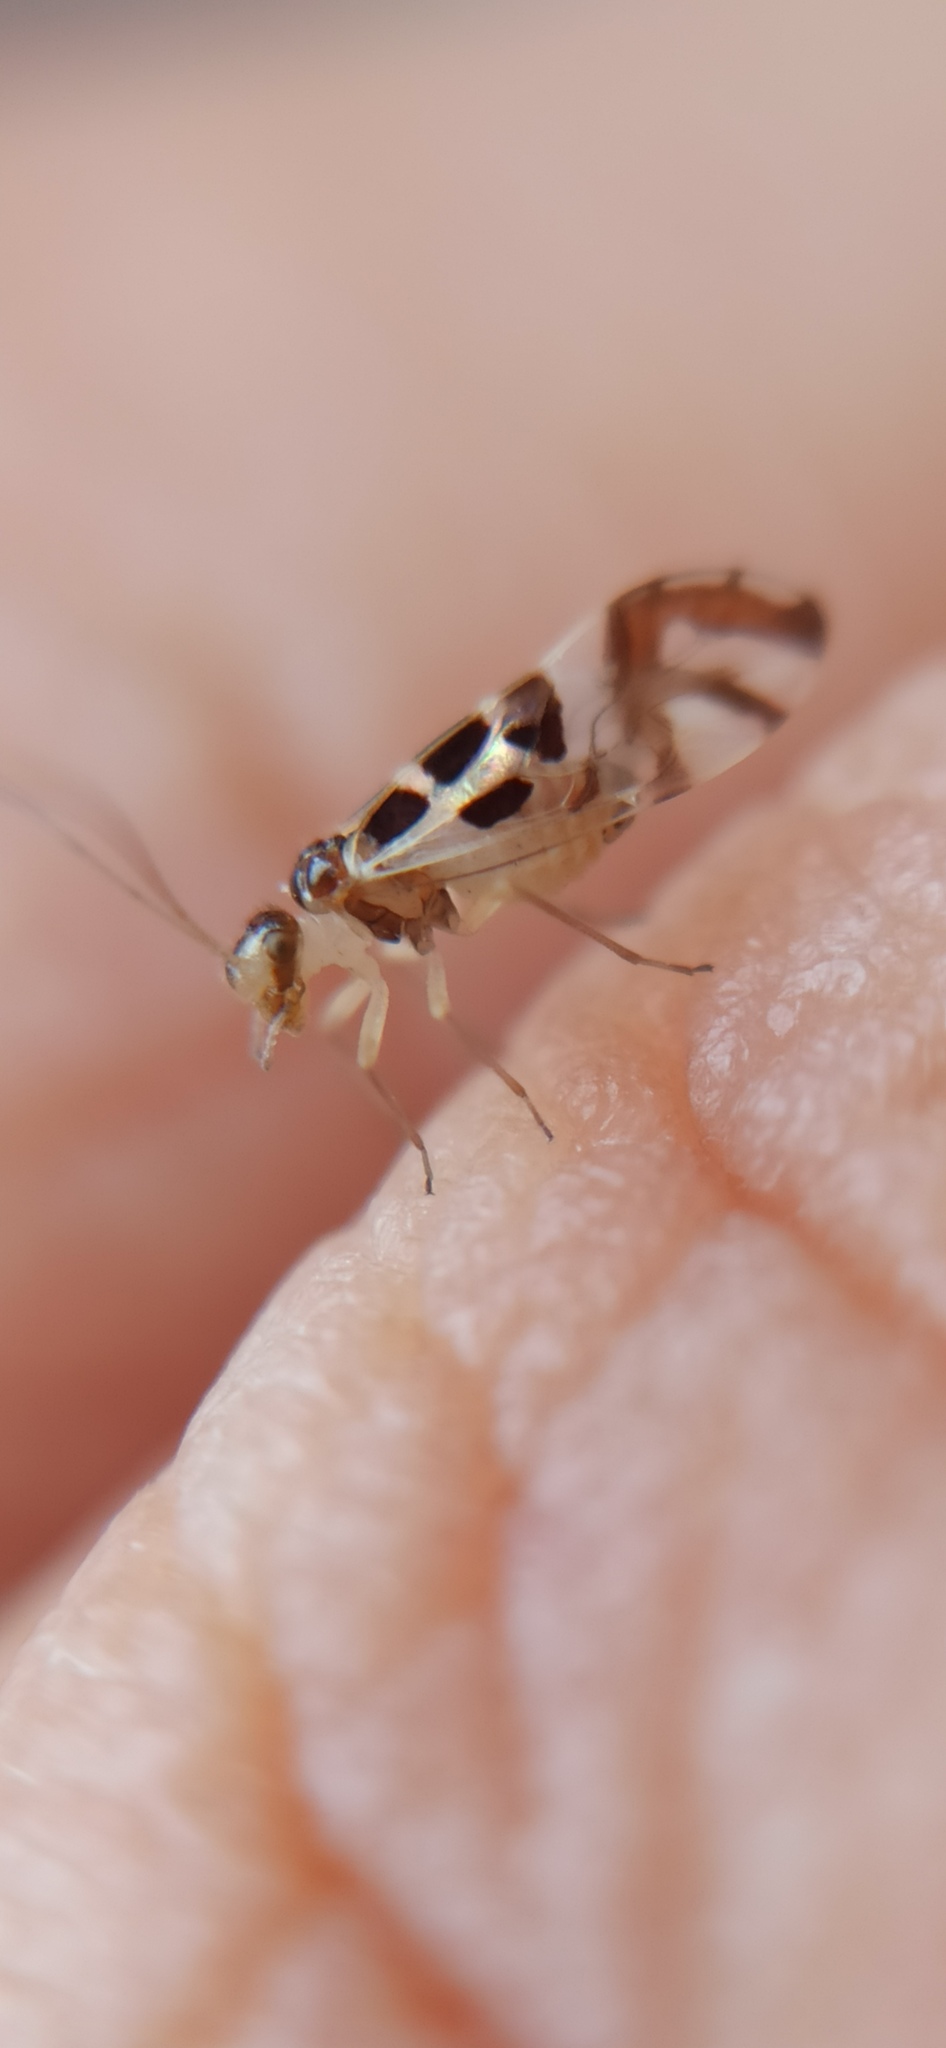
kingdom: Animalia
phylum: Arthropoda
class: Insecta
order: Psocodea
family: Stenopsocidae
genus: Graphopsocus
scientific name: Graphopsocus cruciatus
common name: Lizard bark louse
